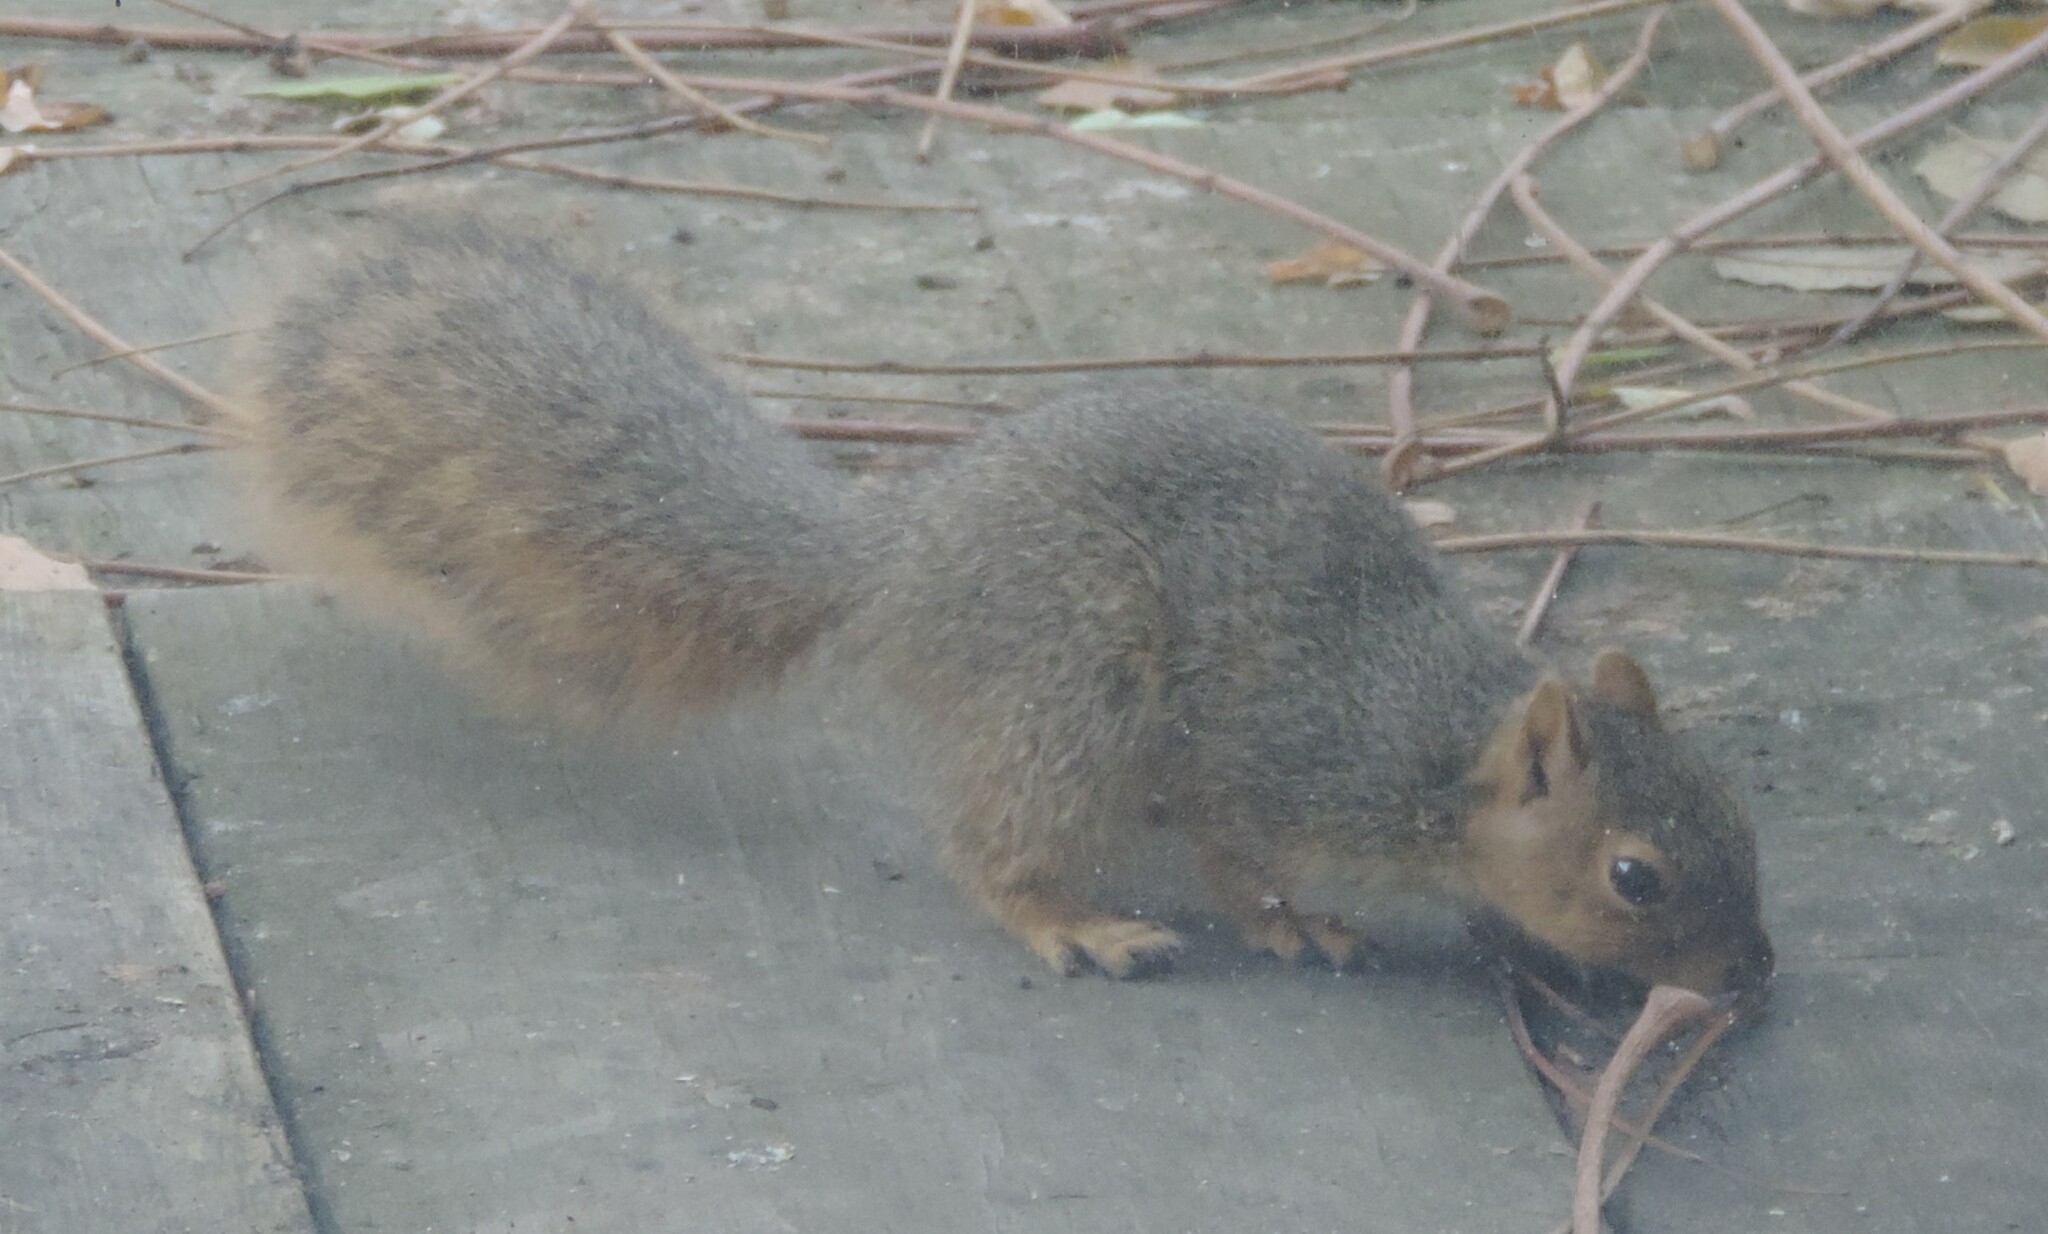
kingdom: Animalia
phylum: Chordata
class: Mammalia
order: Rodentia
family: Sciuridae
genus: Sciurus
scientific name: Sciurus niger
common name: Fox squirrel
